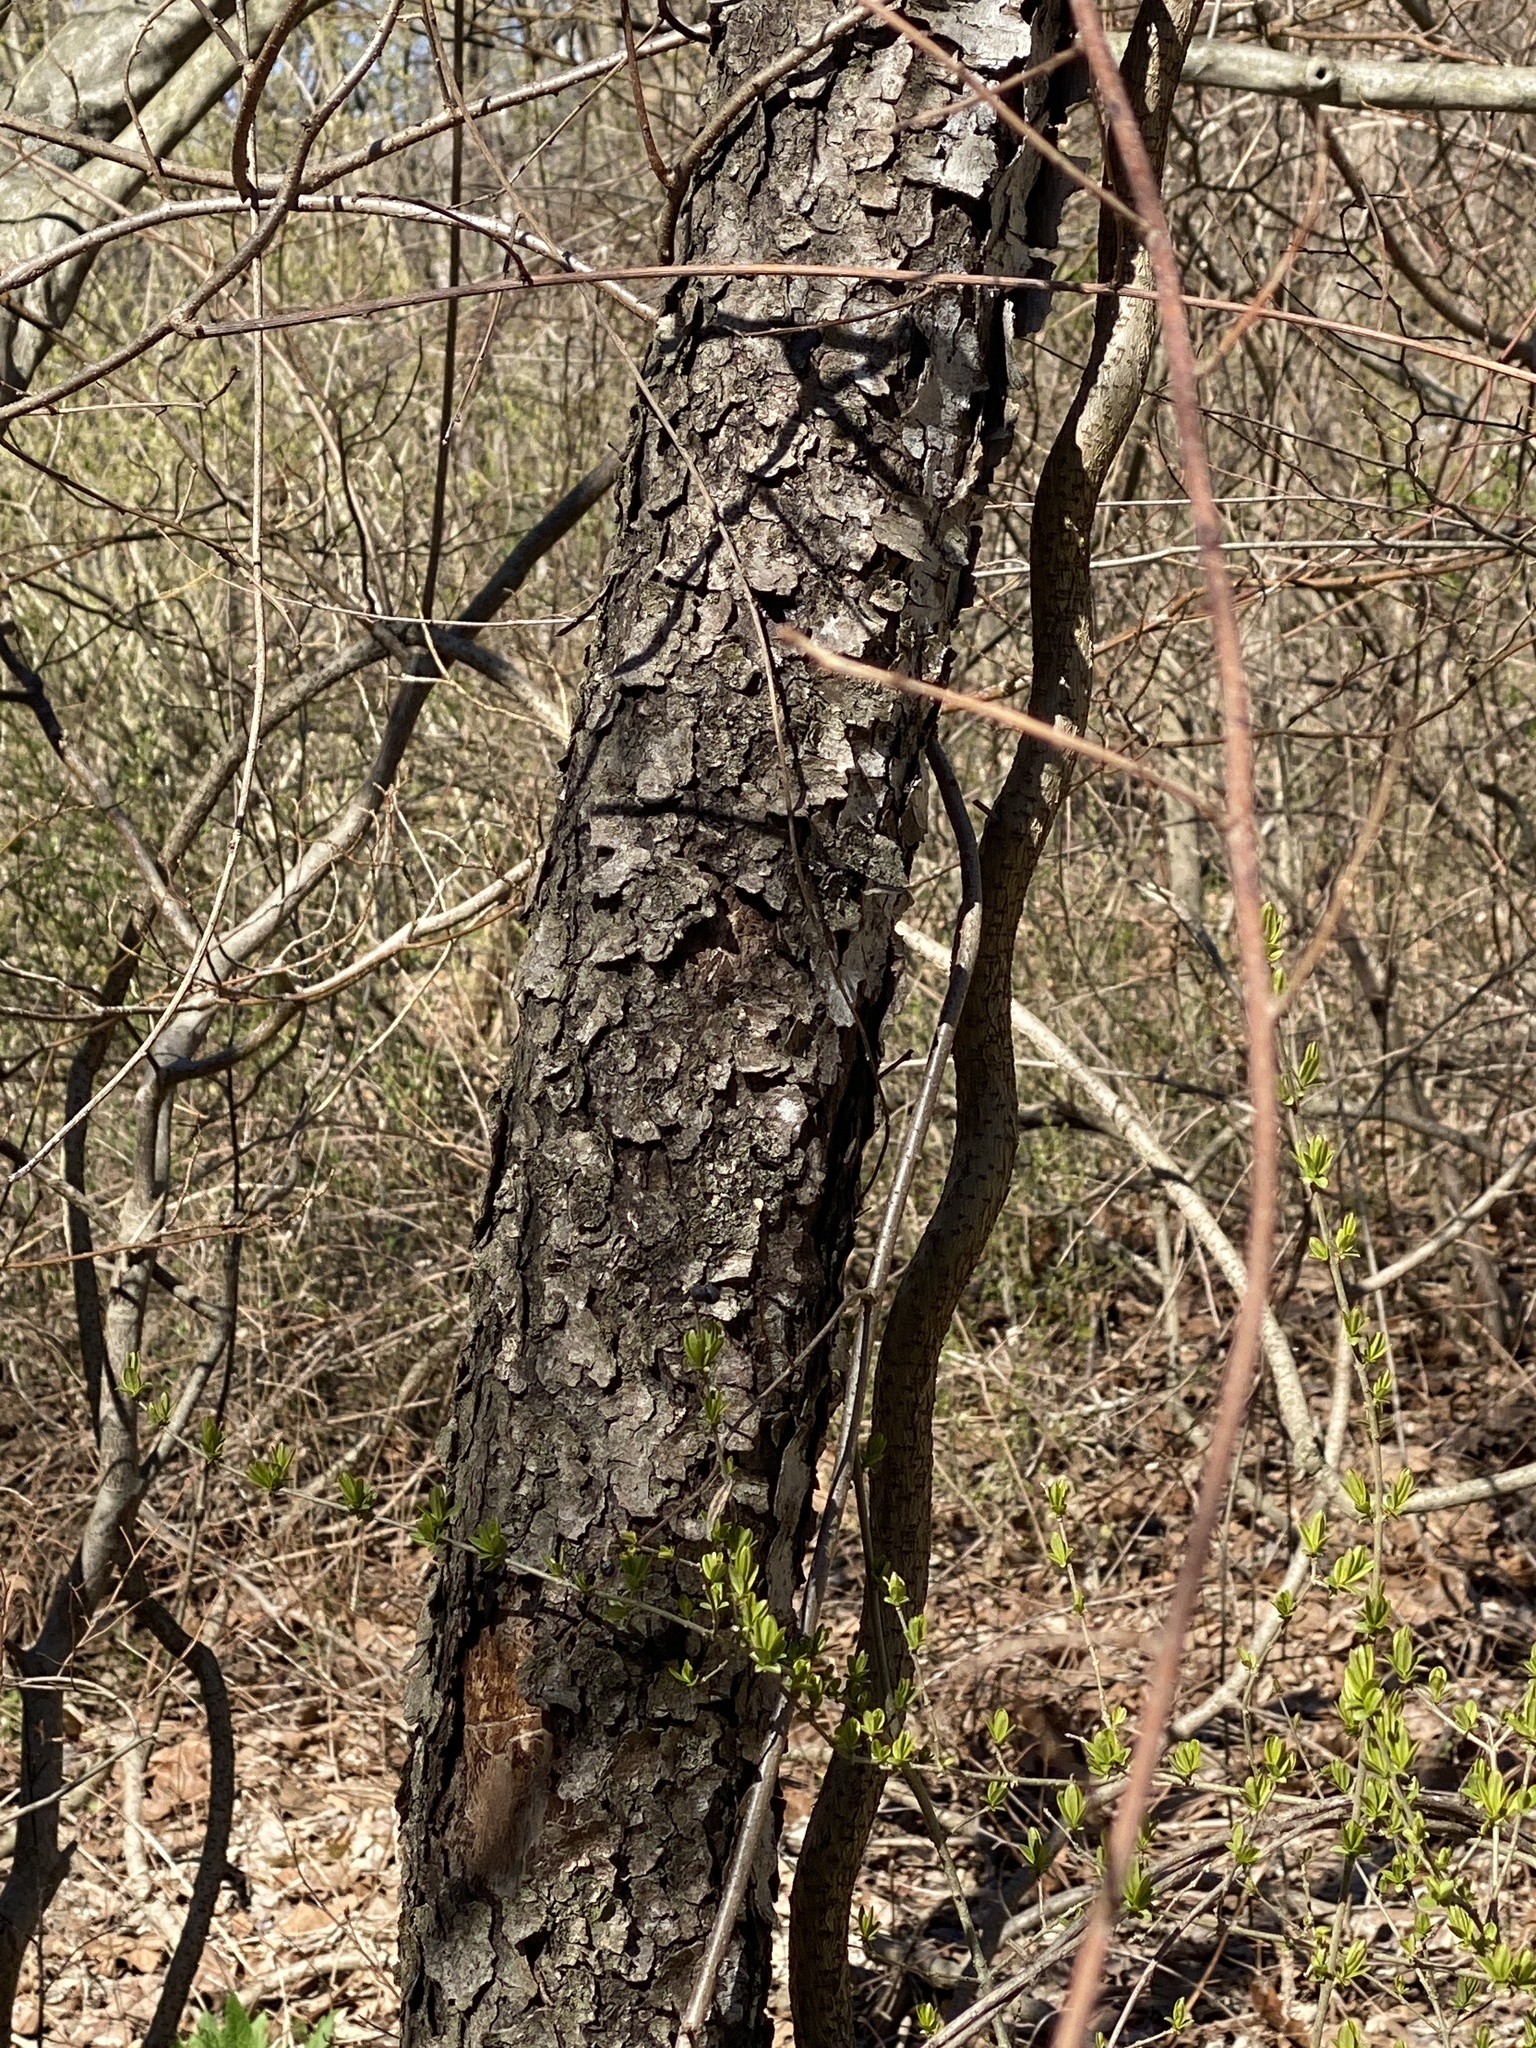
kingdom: Plantae
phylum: Tracheophyta
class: Magnoliopsida
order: Rosales
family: Rosaceae
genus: Prunus
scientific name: Prunus serotina
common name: Black cherry
